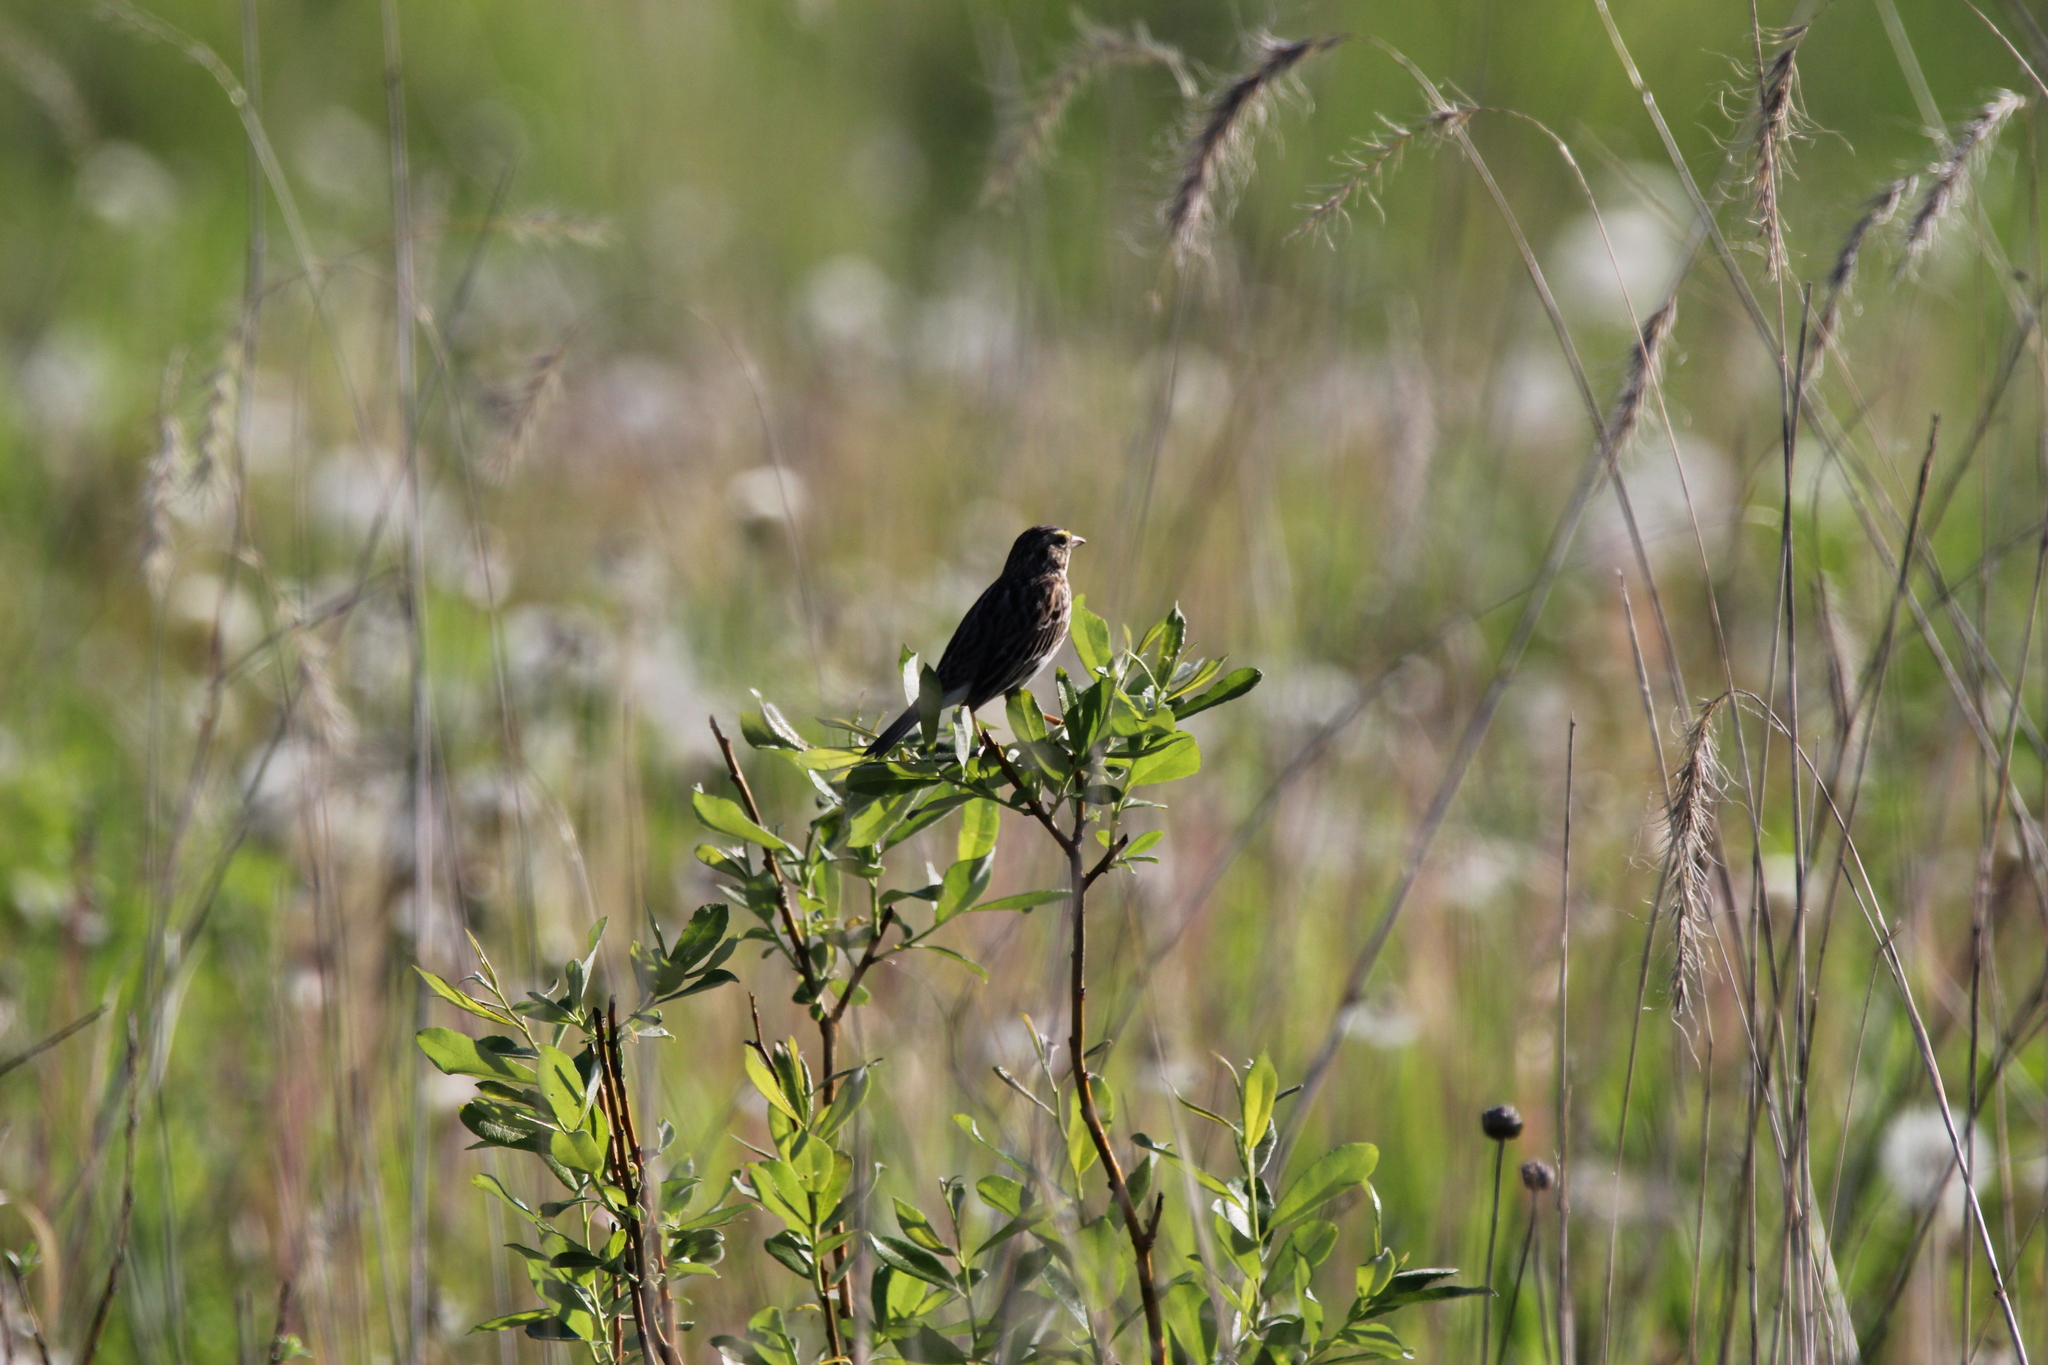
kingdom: Animalia
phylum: Chordata
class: Aves
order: Passeriformes
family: Passerellidae
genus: Passerculus
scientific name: Passerculus sandwichensis
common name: Savannah sparrow
